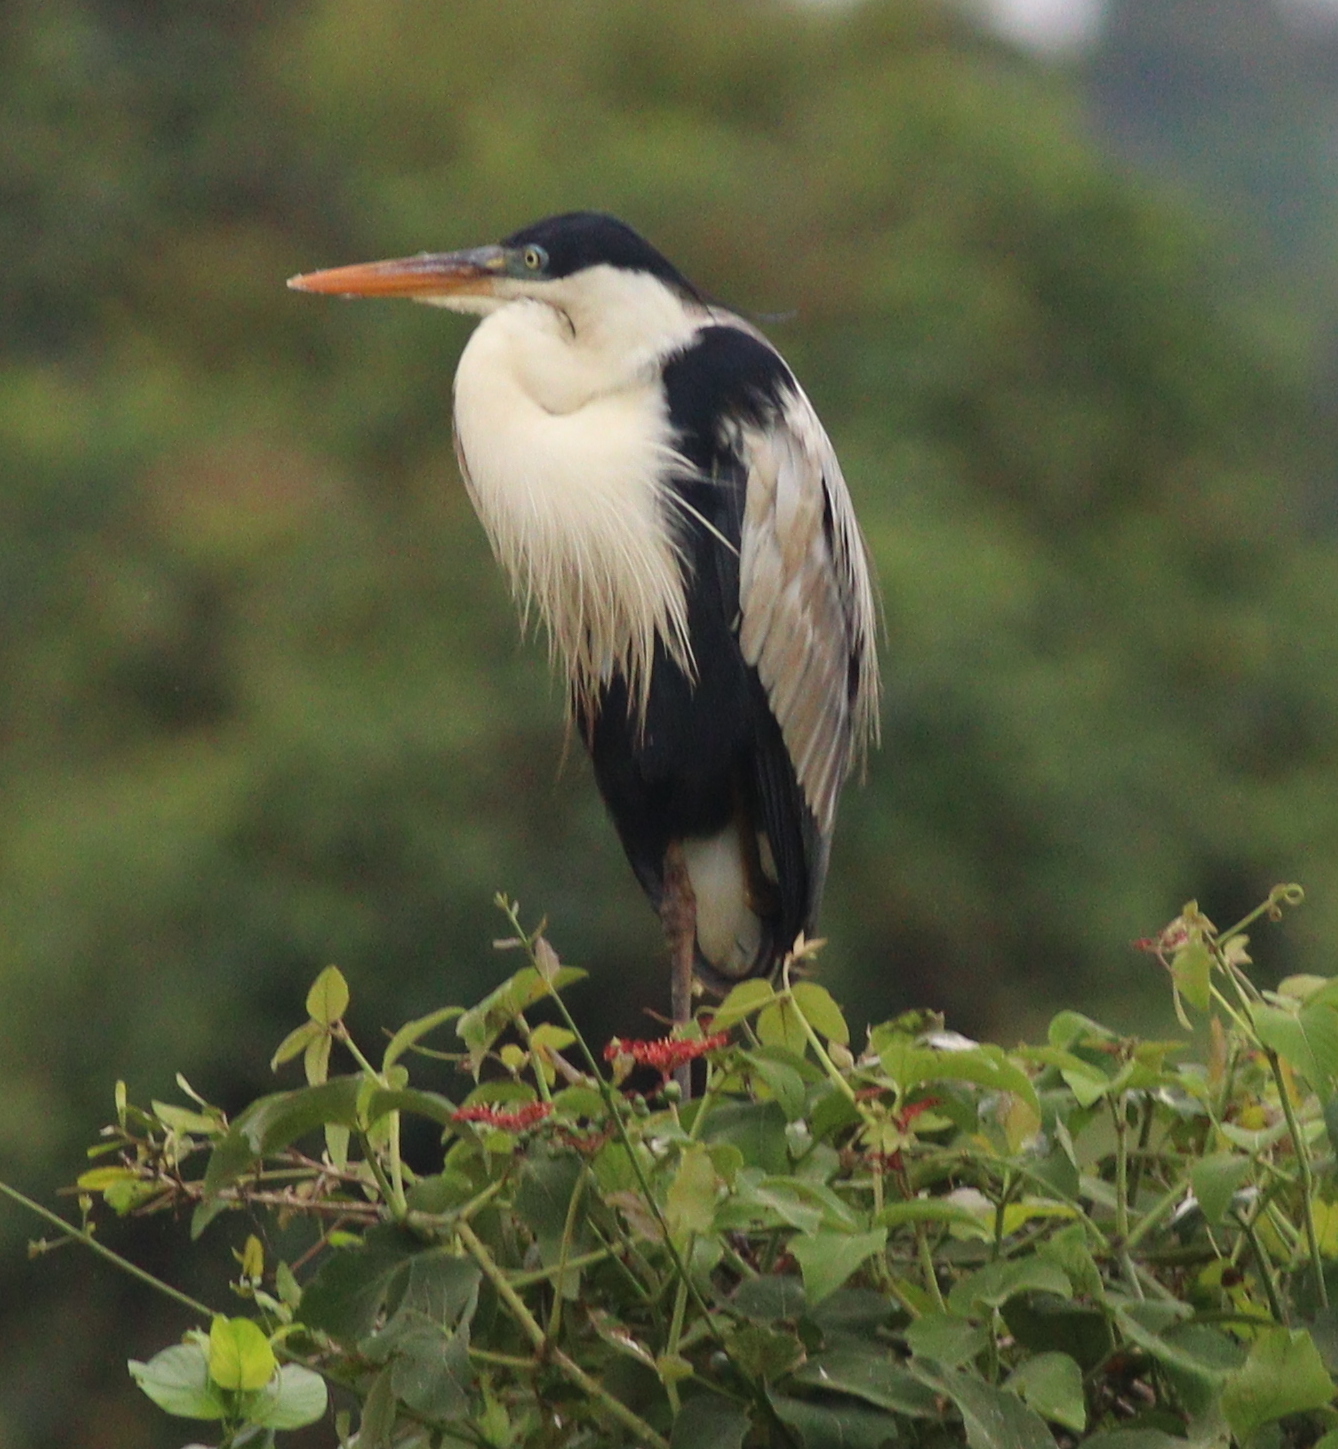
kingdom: Animalia
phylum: Chordata
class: Aves
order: Pelecaniformes
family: Ardeidae
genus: Ardea
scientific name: Ardea cocoi
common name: Cocoi heron
